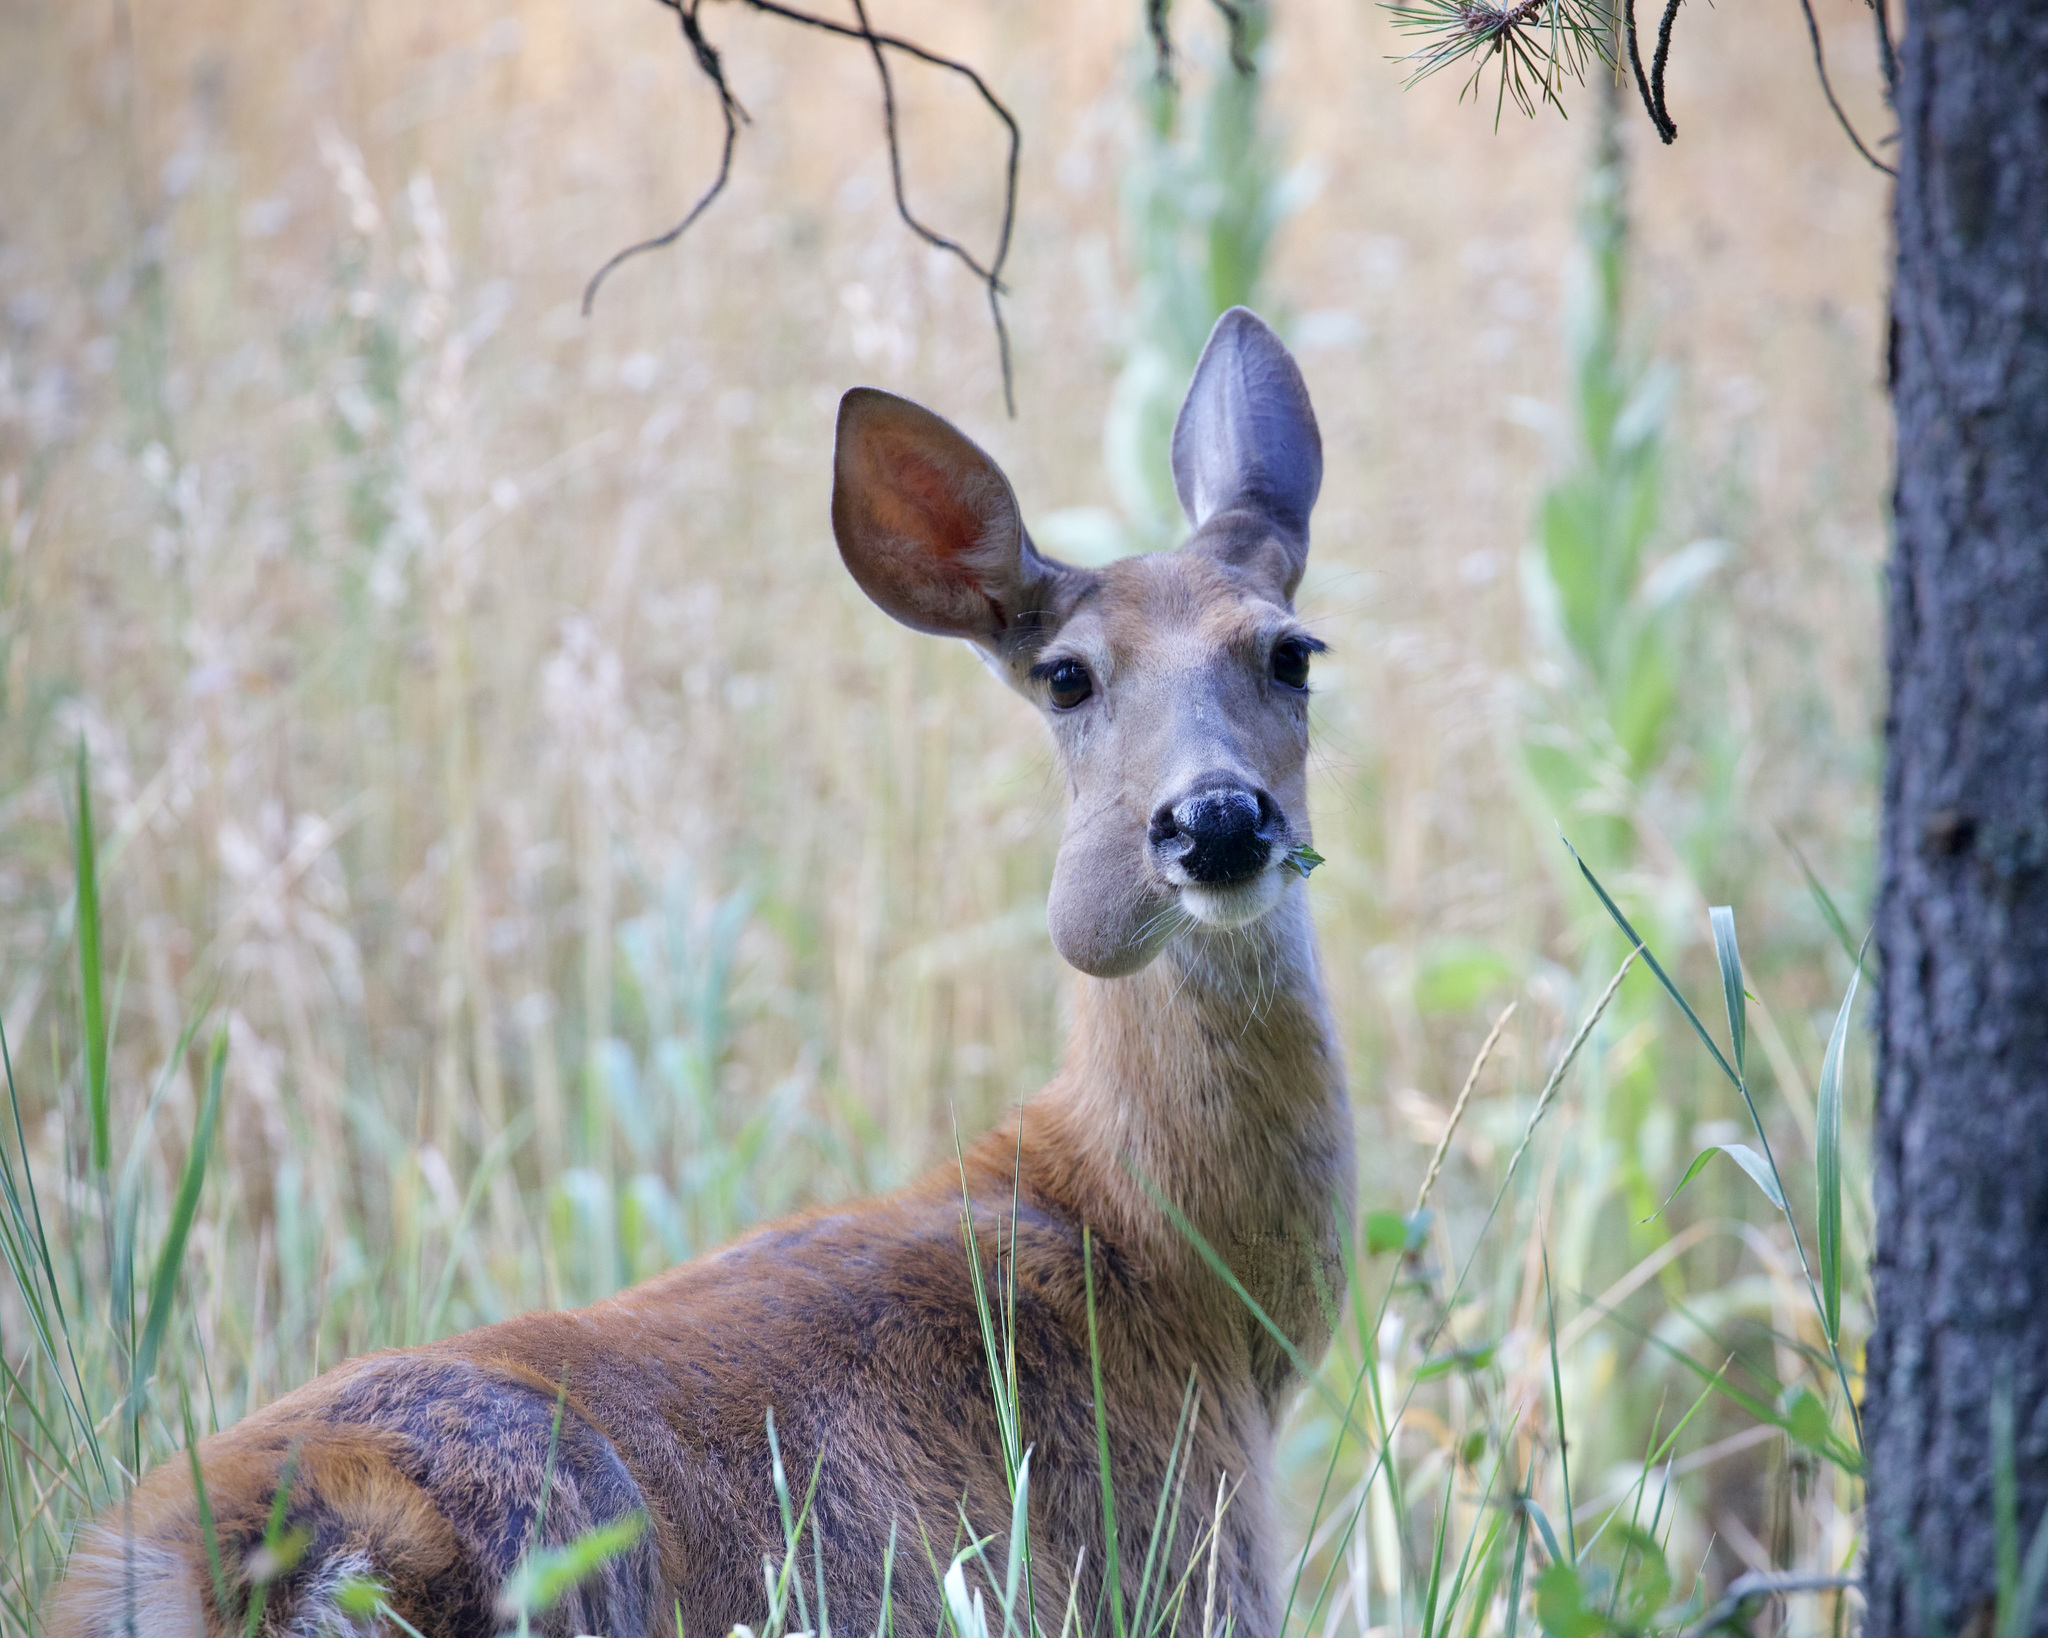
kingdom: Animalia
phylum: Chordata
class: Mammalia
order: Artiodactyla
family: Cervidae
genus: Odocoileus
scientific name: Odocoileus virginianus
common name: White-tailed deer
